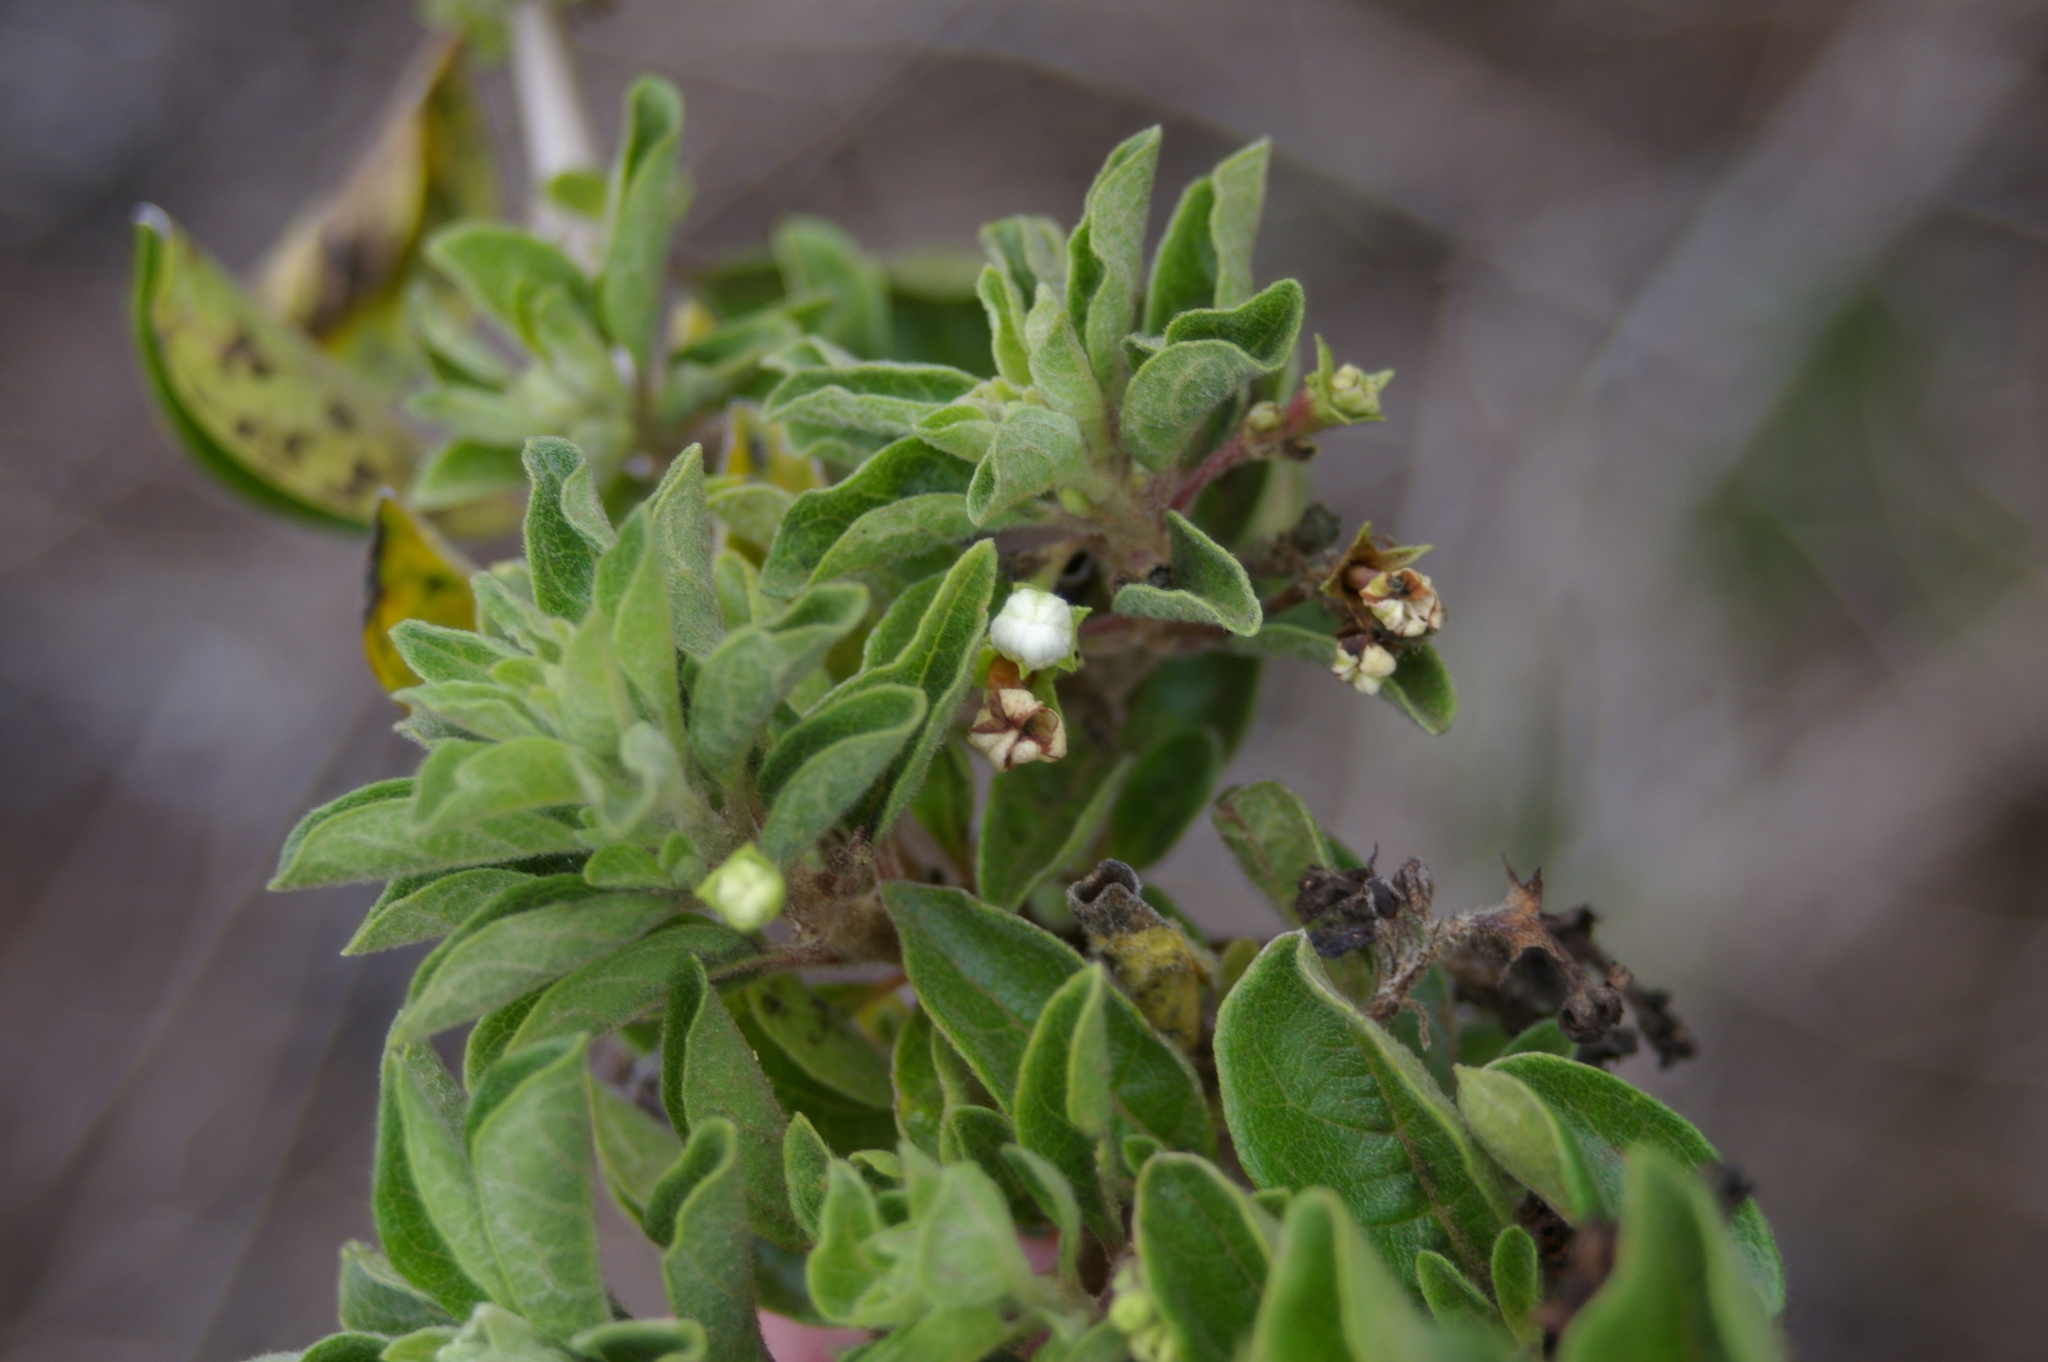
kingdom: Plantae
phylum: Tracheophyta
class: Magnoliopsida
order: Lamiales
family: Lamiaceae
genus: Volkameria
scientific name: Volkameria mollis
